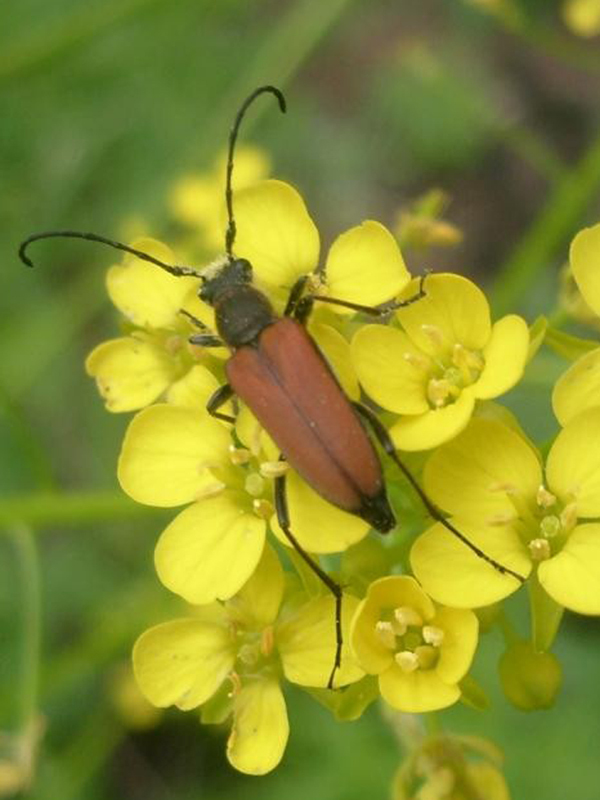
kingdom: Animalia
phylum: Arthropoda
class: Insecta
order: Coleoptera
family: Cerambycidae
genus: Anastrangalia
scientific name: Anastrangalia reyi
